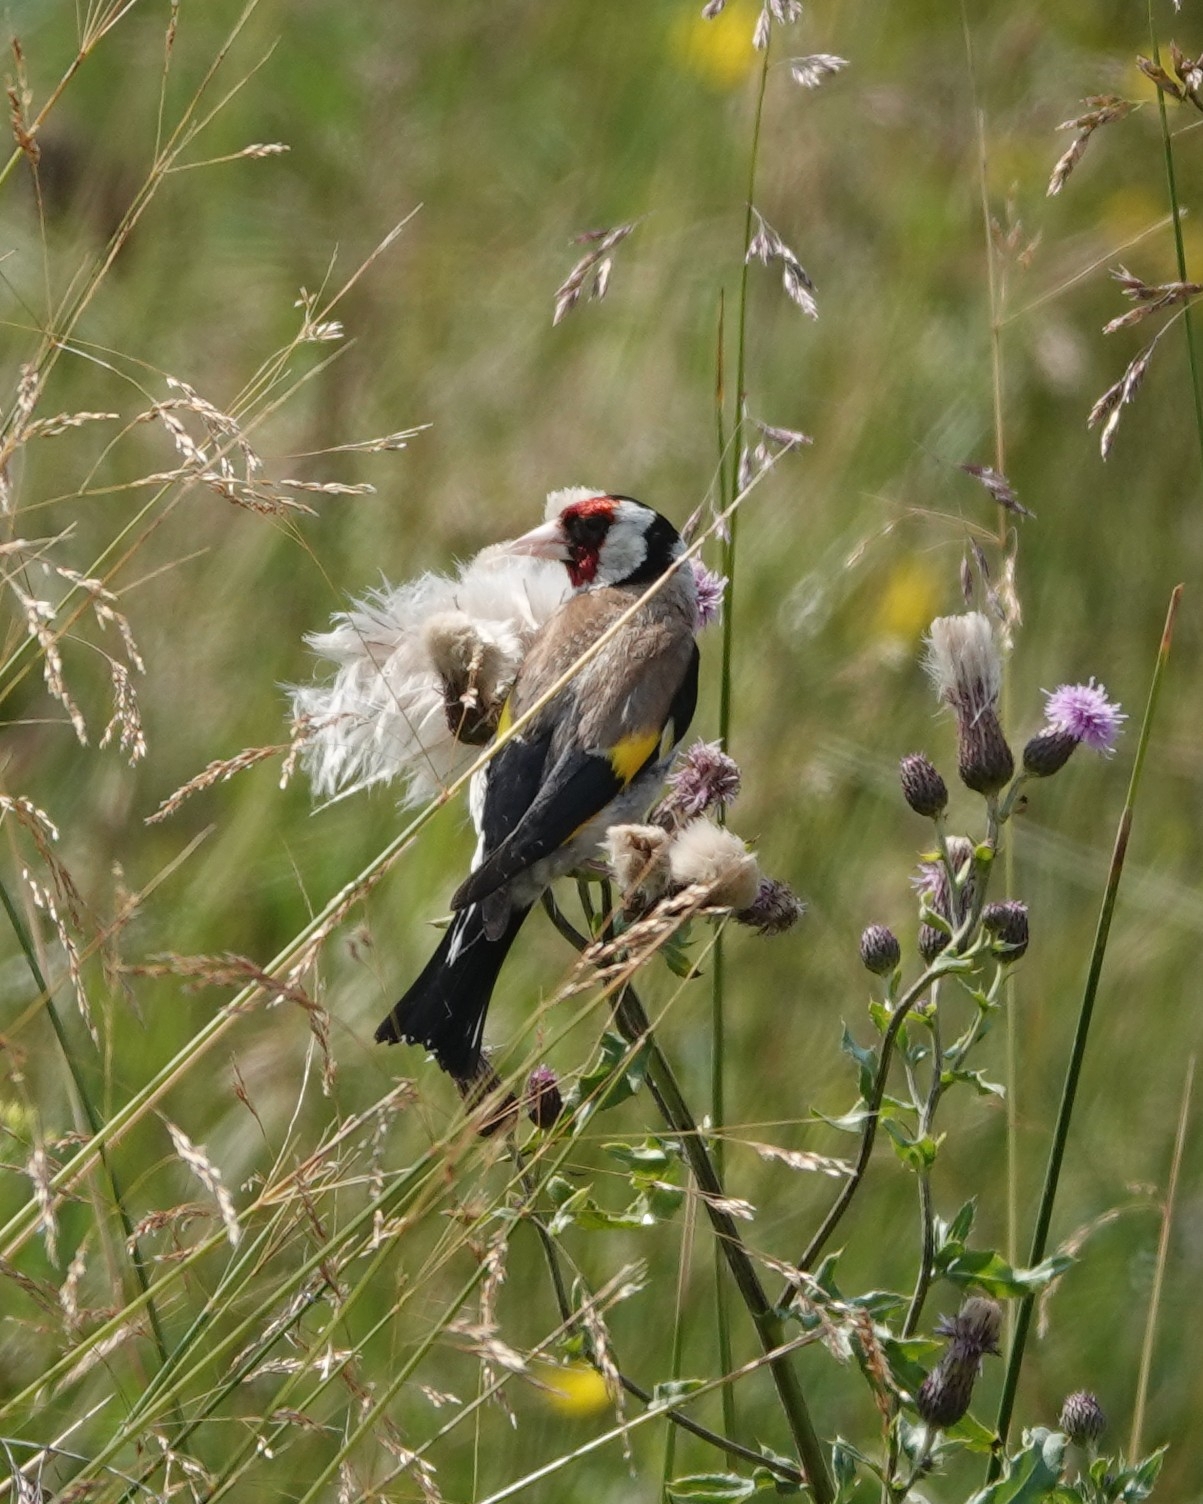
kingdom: Animalia
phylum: Chordata
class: Aves
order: Passeriformes
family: Fringillidae
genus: Carduelis
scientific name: Carduelis carduelis
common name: European goldfinch
